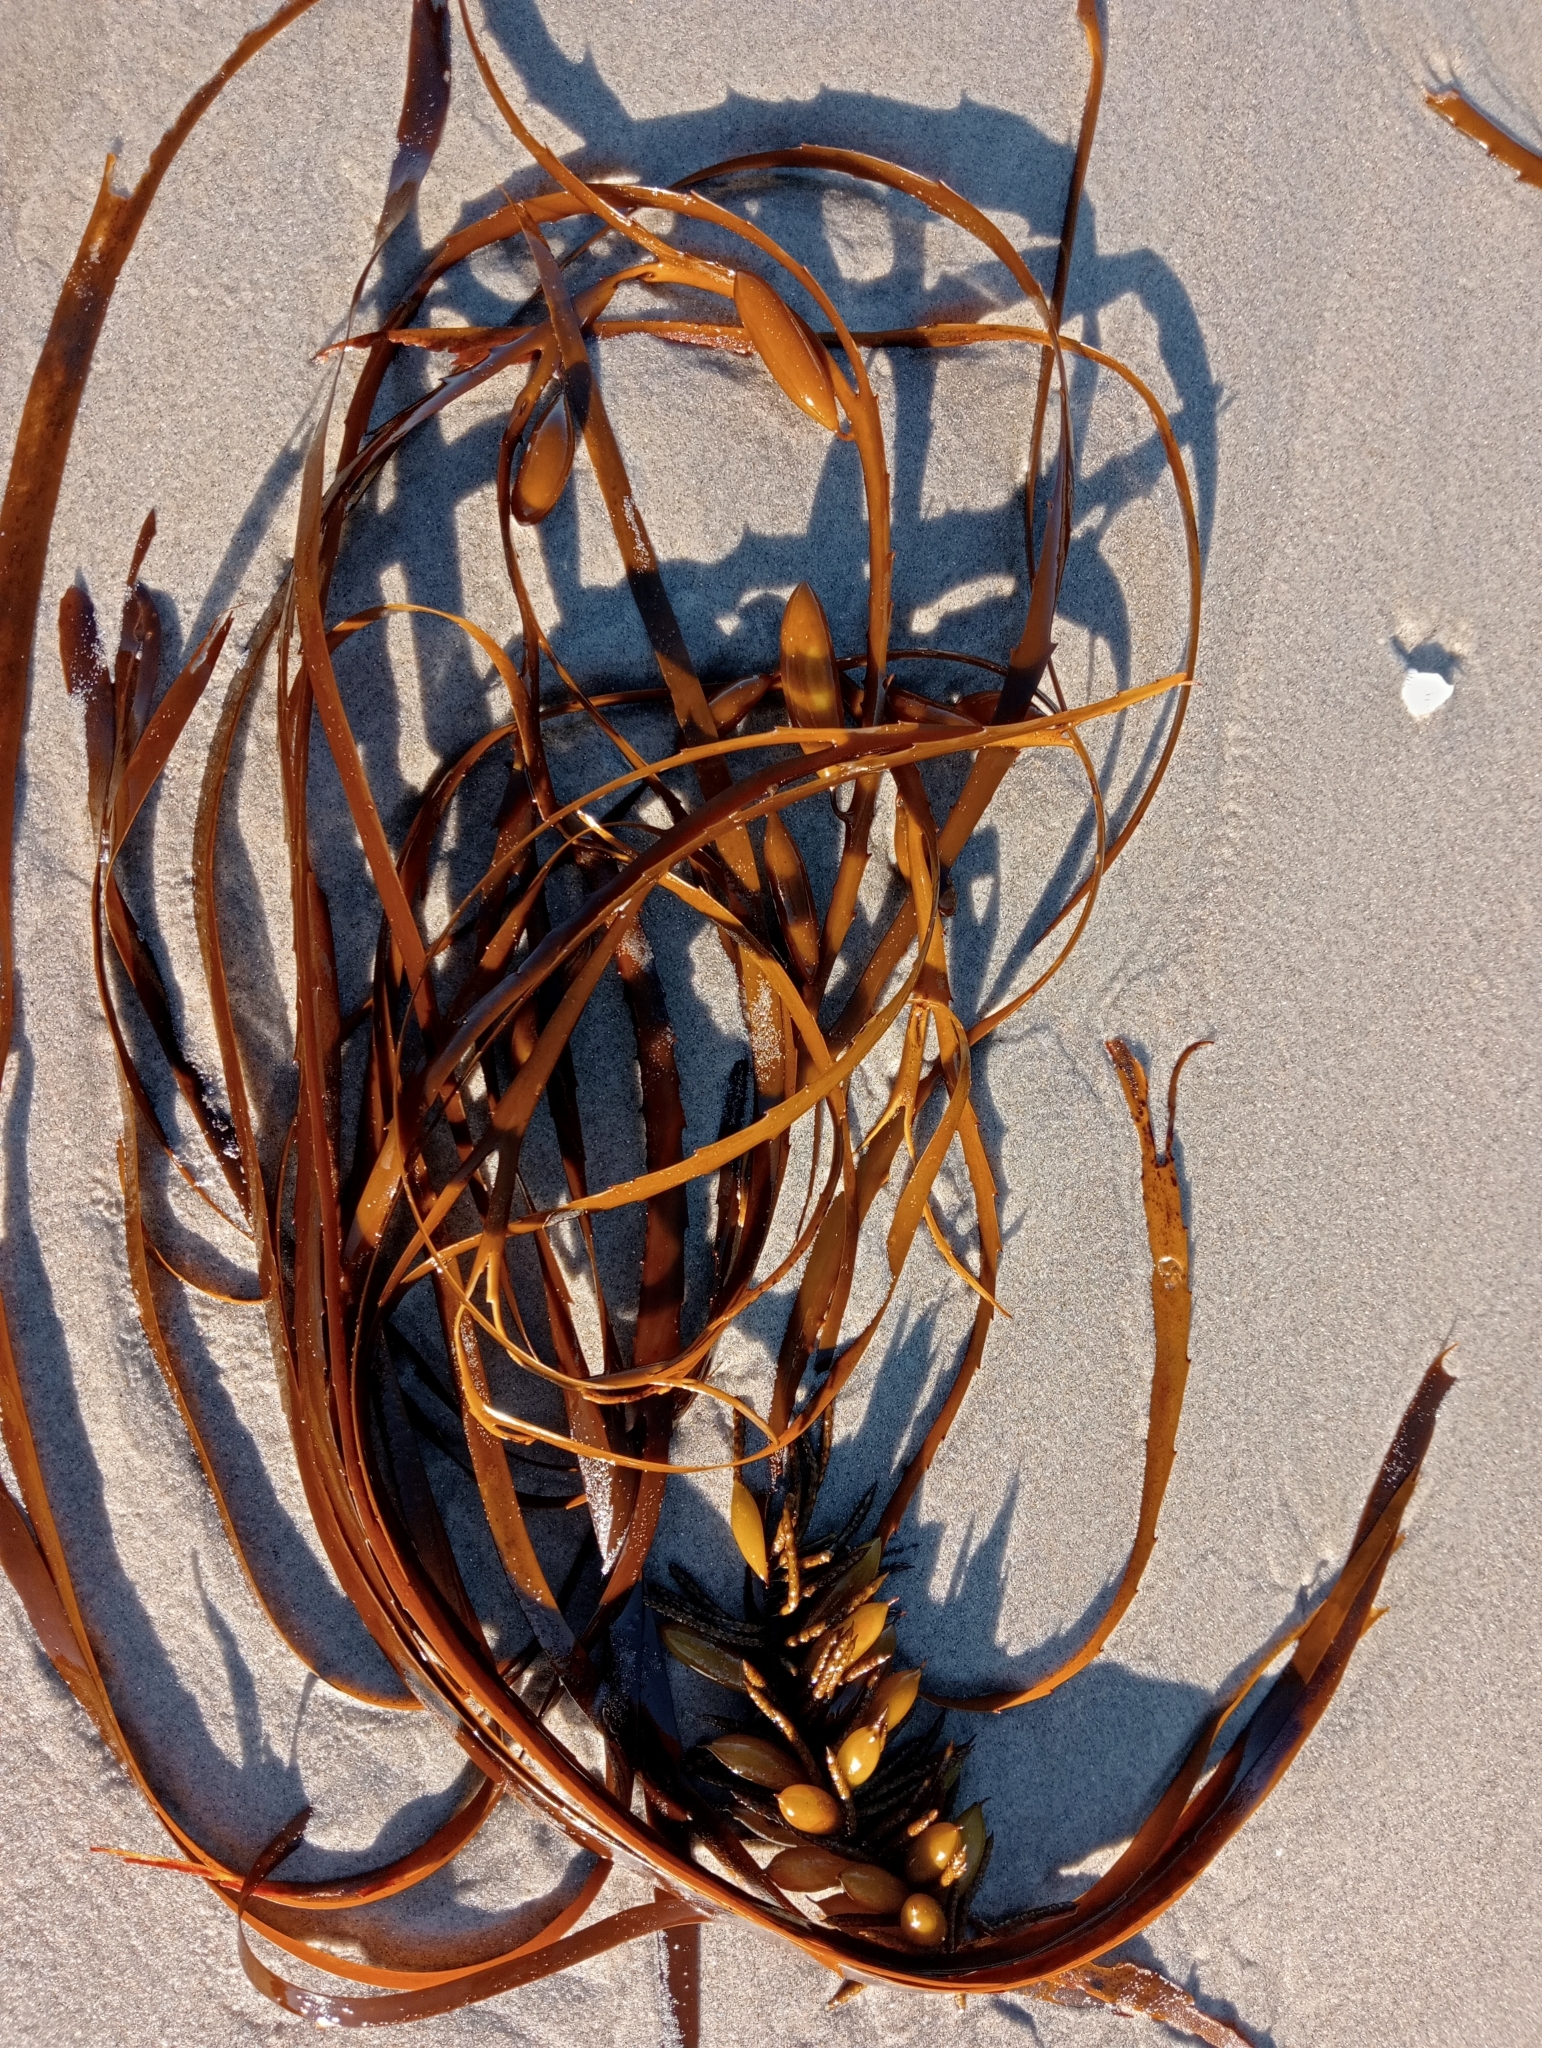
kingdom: Chromista
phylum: Ochrophyta
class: Phaeophyceae
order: Fucales
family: Seirococcaceae
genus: Marginariella
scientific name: Marginariella boryana
